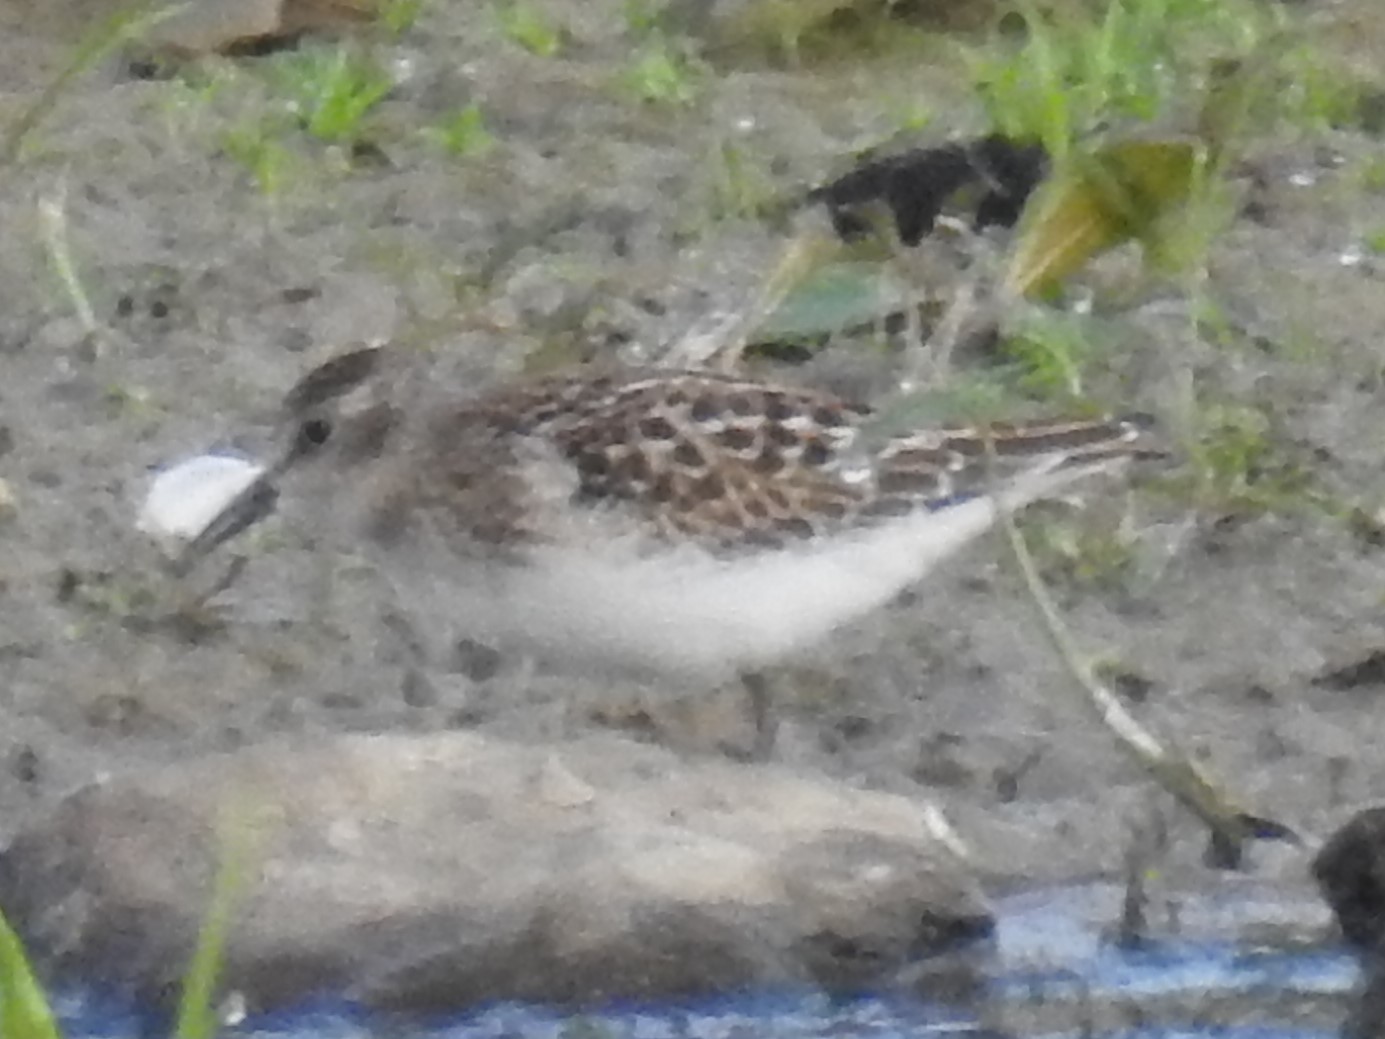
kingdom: Animalia
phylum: Chordata
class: Aves
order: Charadriiformes
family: Scolopacidae
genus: Calidris
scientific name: Calidris minutilla
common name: Least sandpiper
